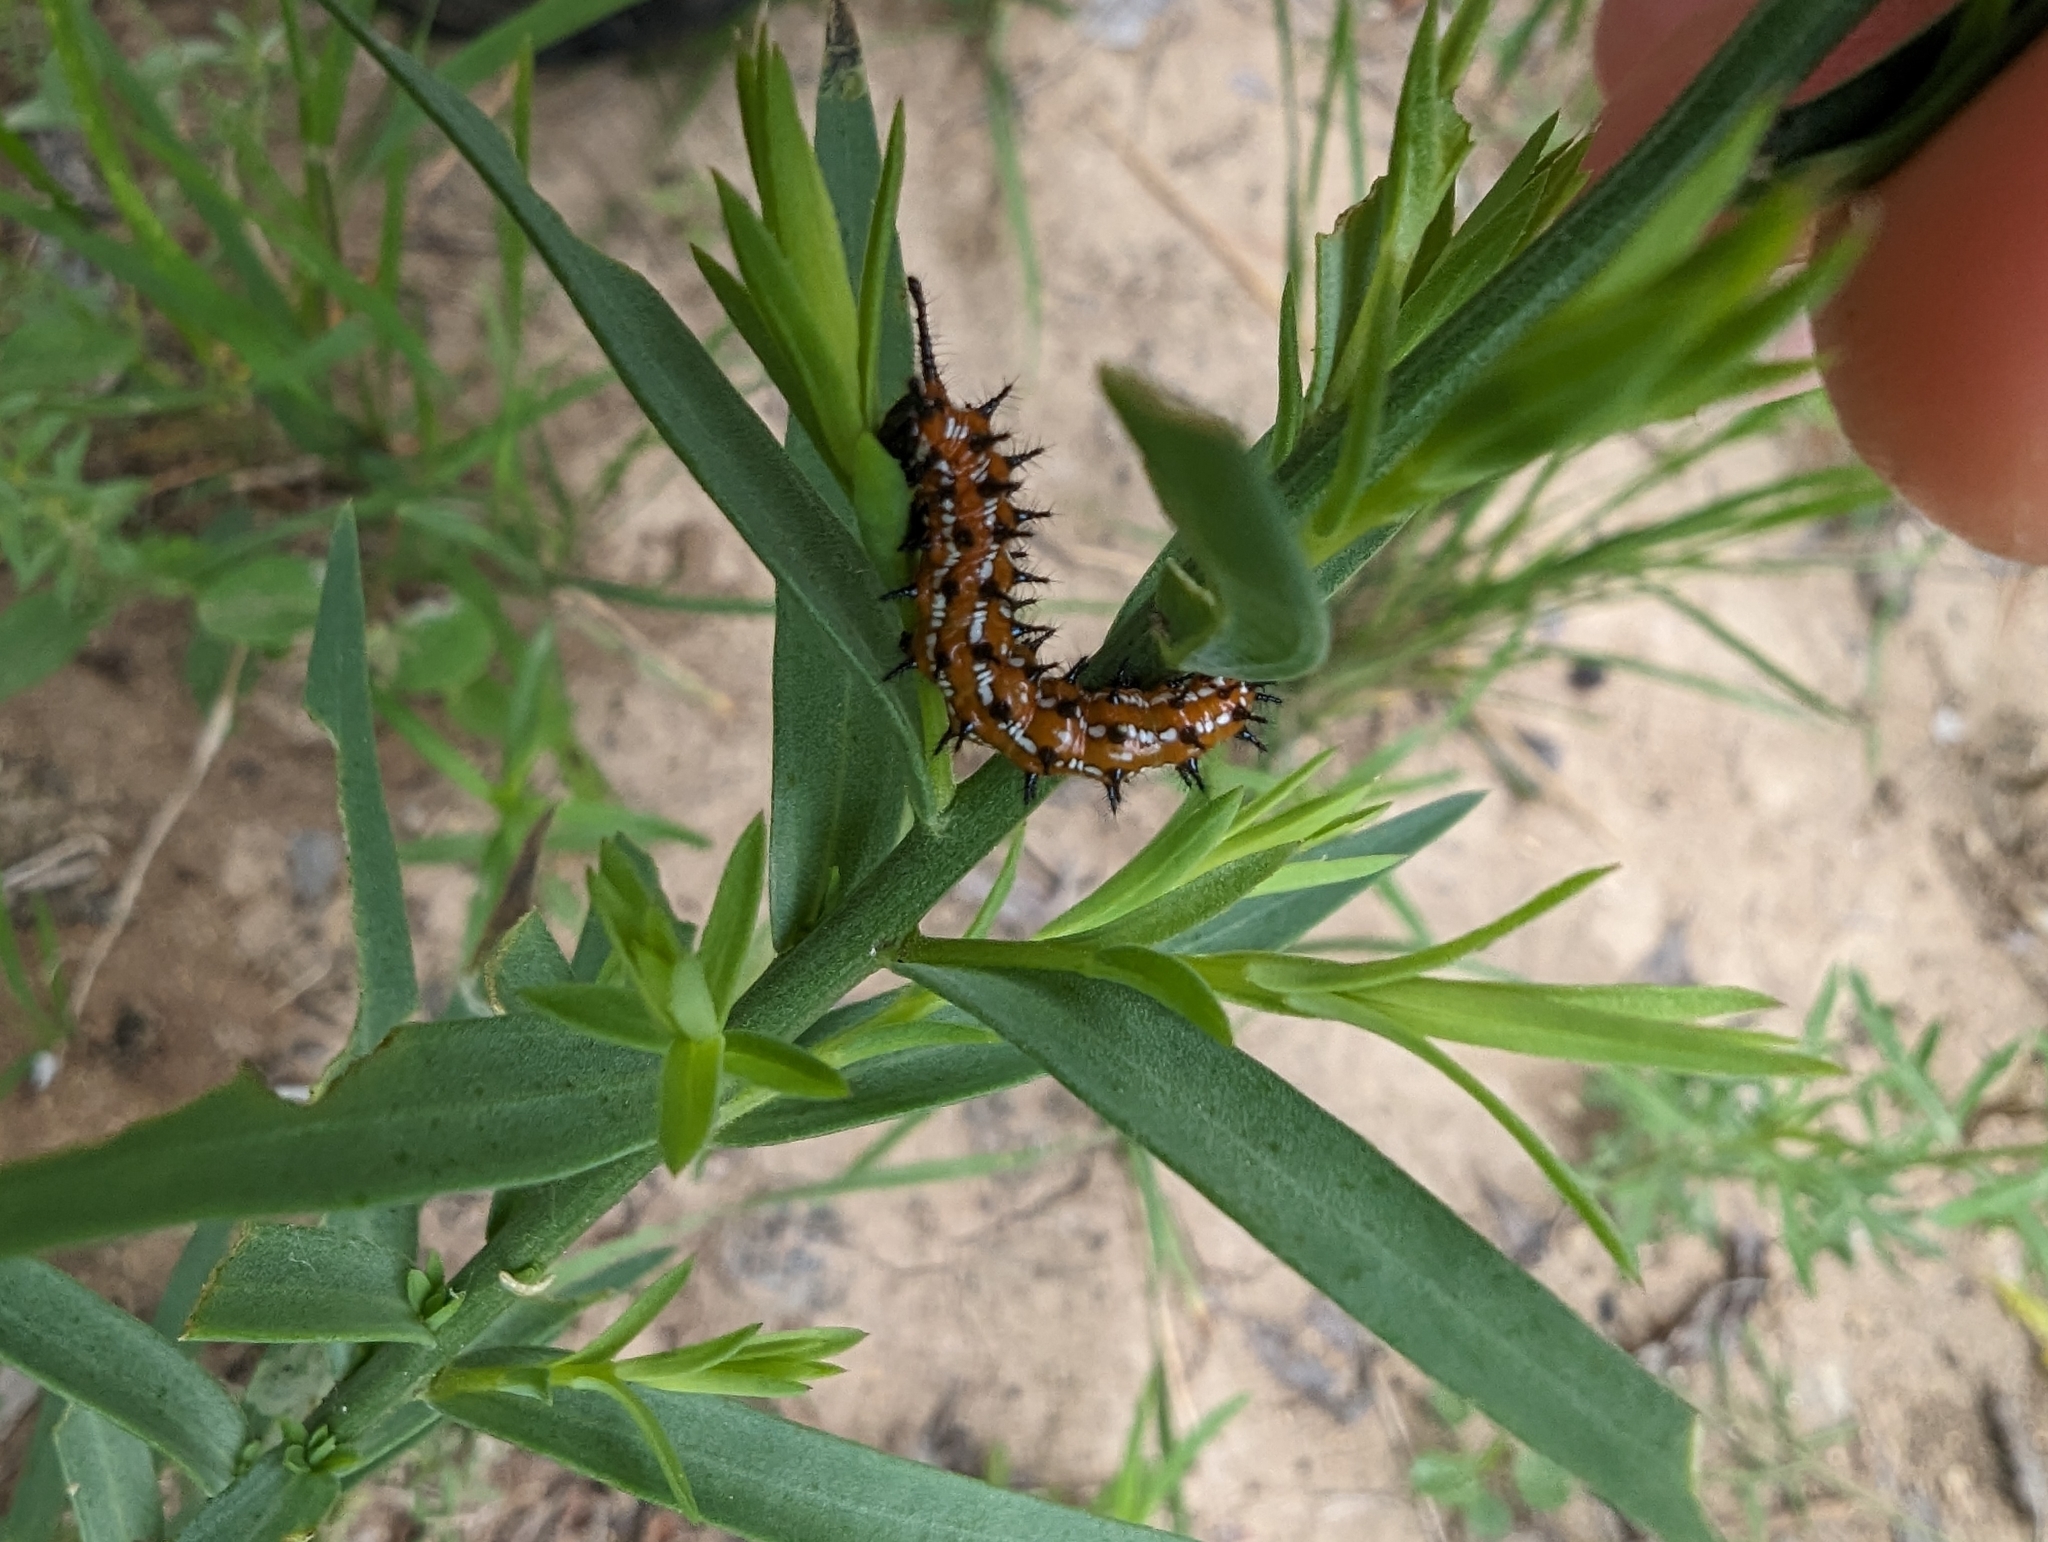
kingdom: Animalia
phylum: Arthropoda
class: Insecta
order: Lepidoptera
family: Nymphalidae
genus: Euptoieta
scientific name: Euptoieta claudia
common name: Variegated fritillary
